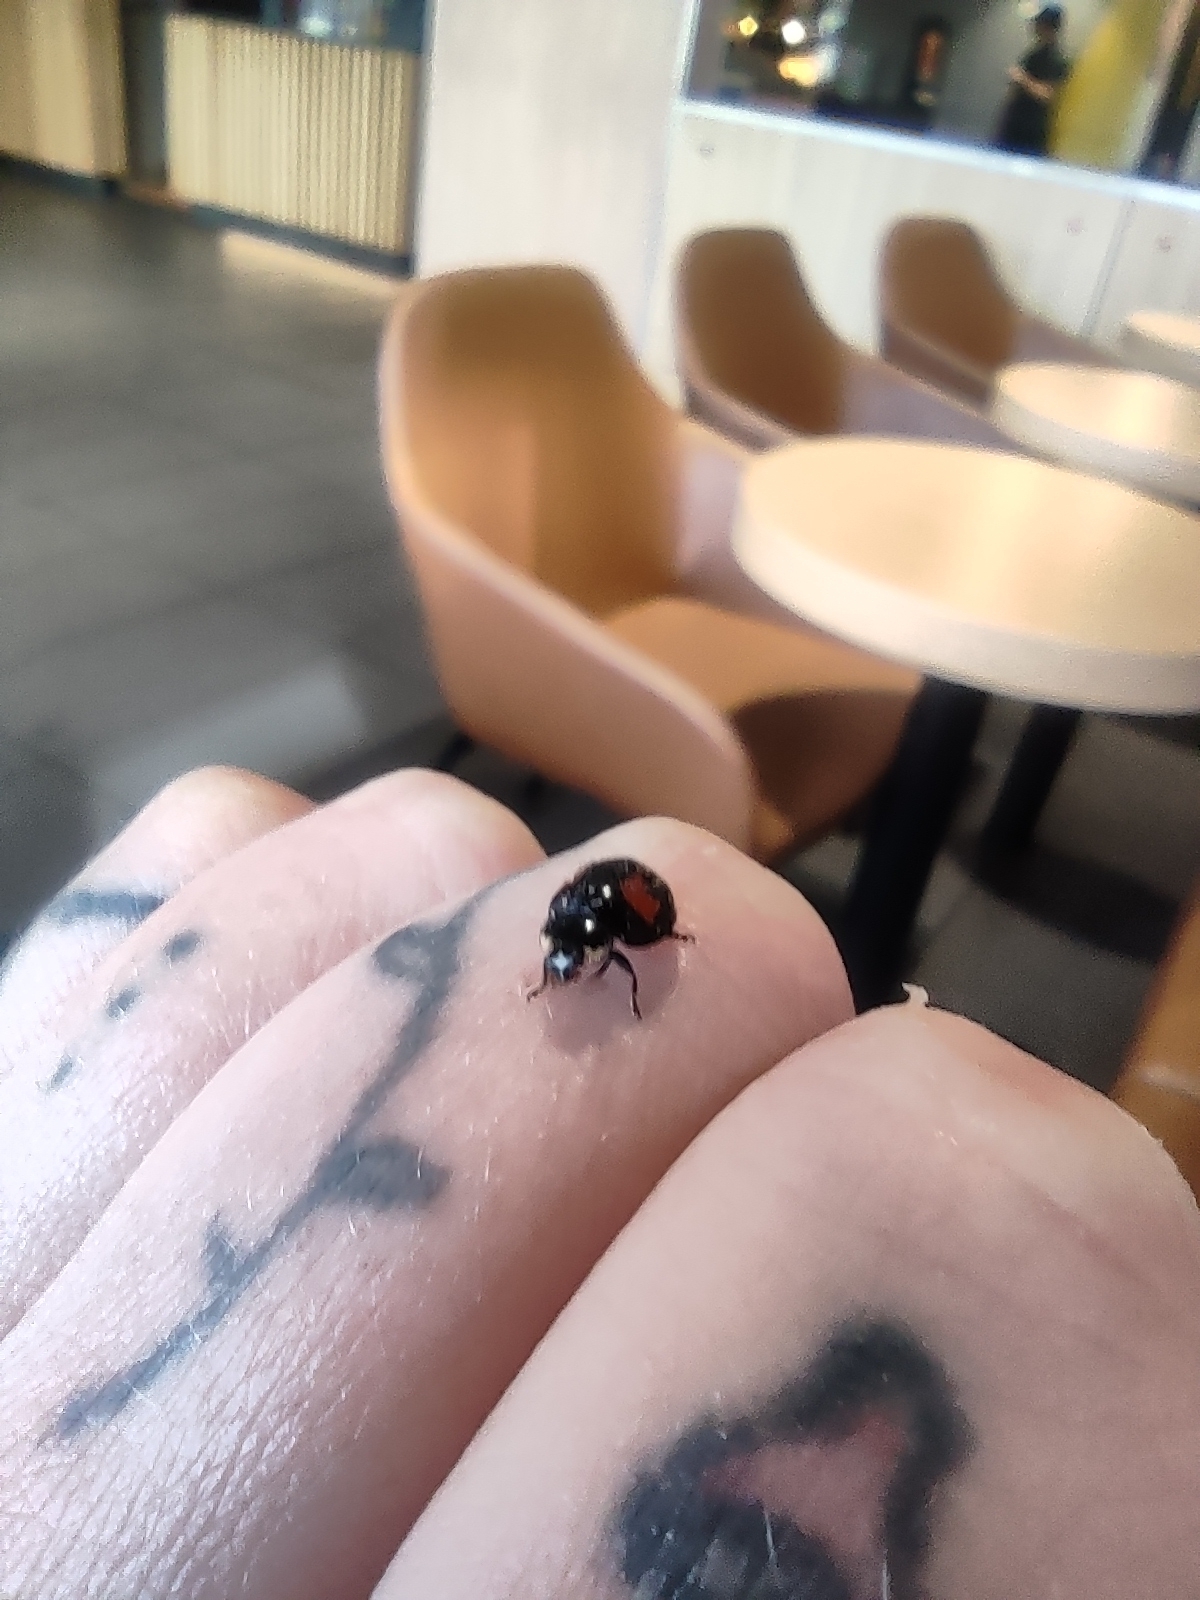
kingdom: Animalia
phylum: Arthropoda
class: Insecta
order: Coleoptera
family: Coccinellidae
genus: Harmonia
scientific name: Harmonia axyridis
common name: Harlequin ladybird
